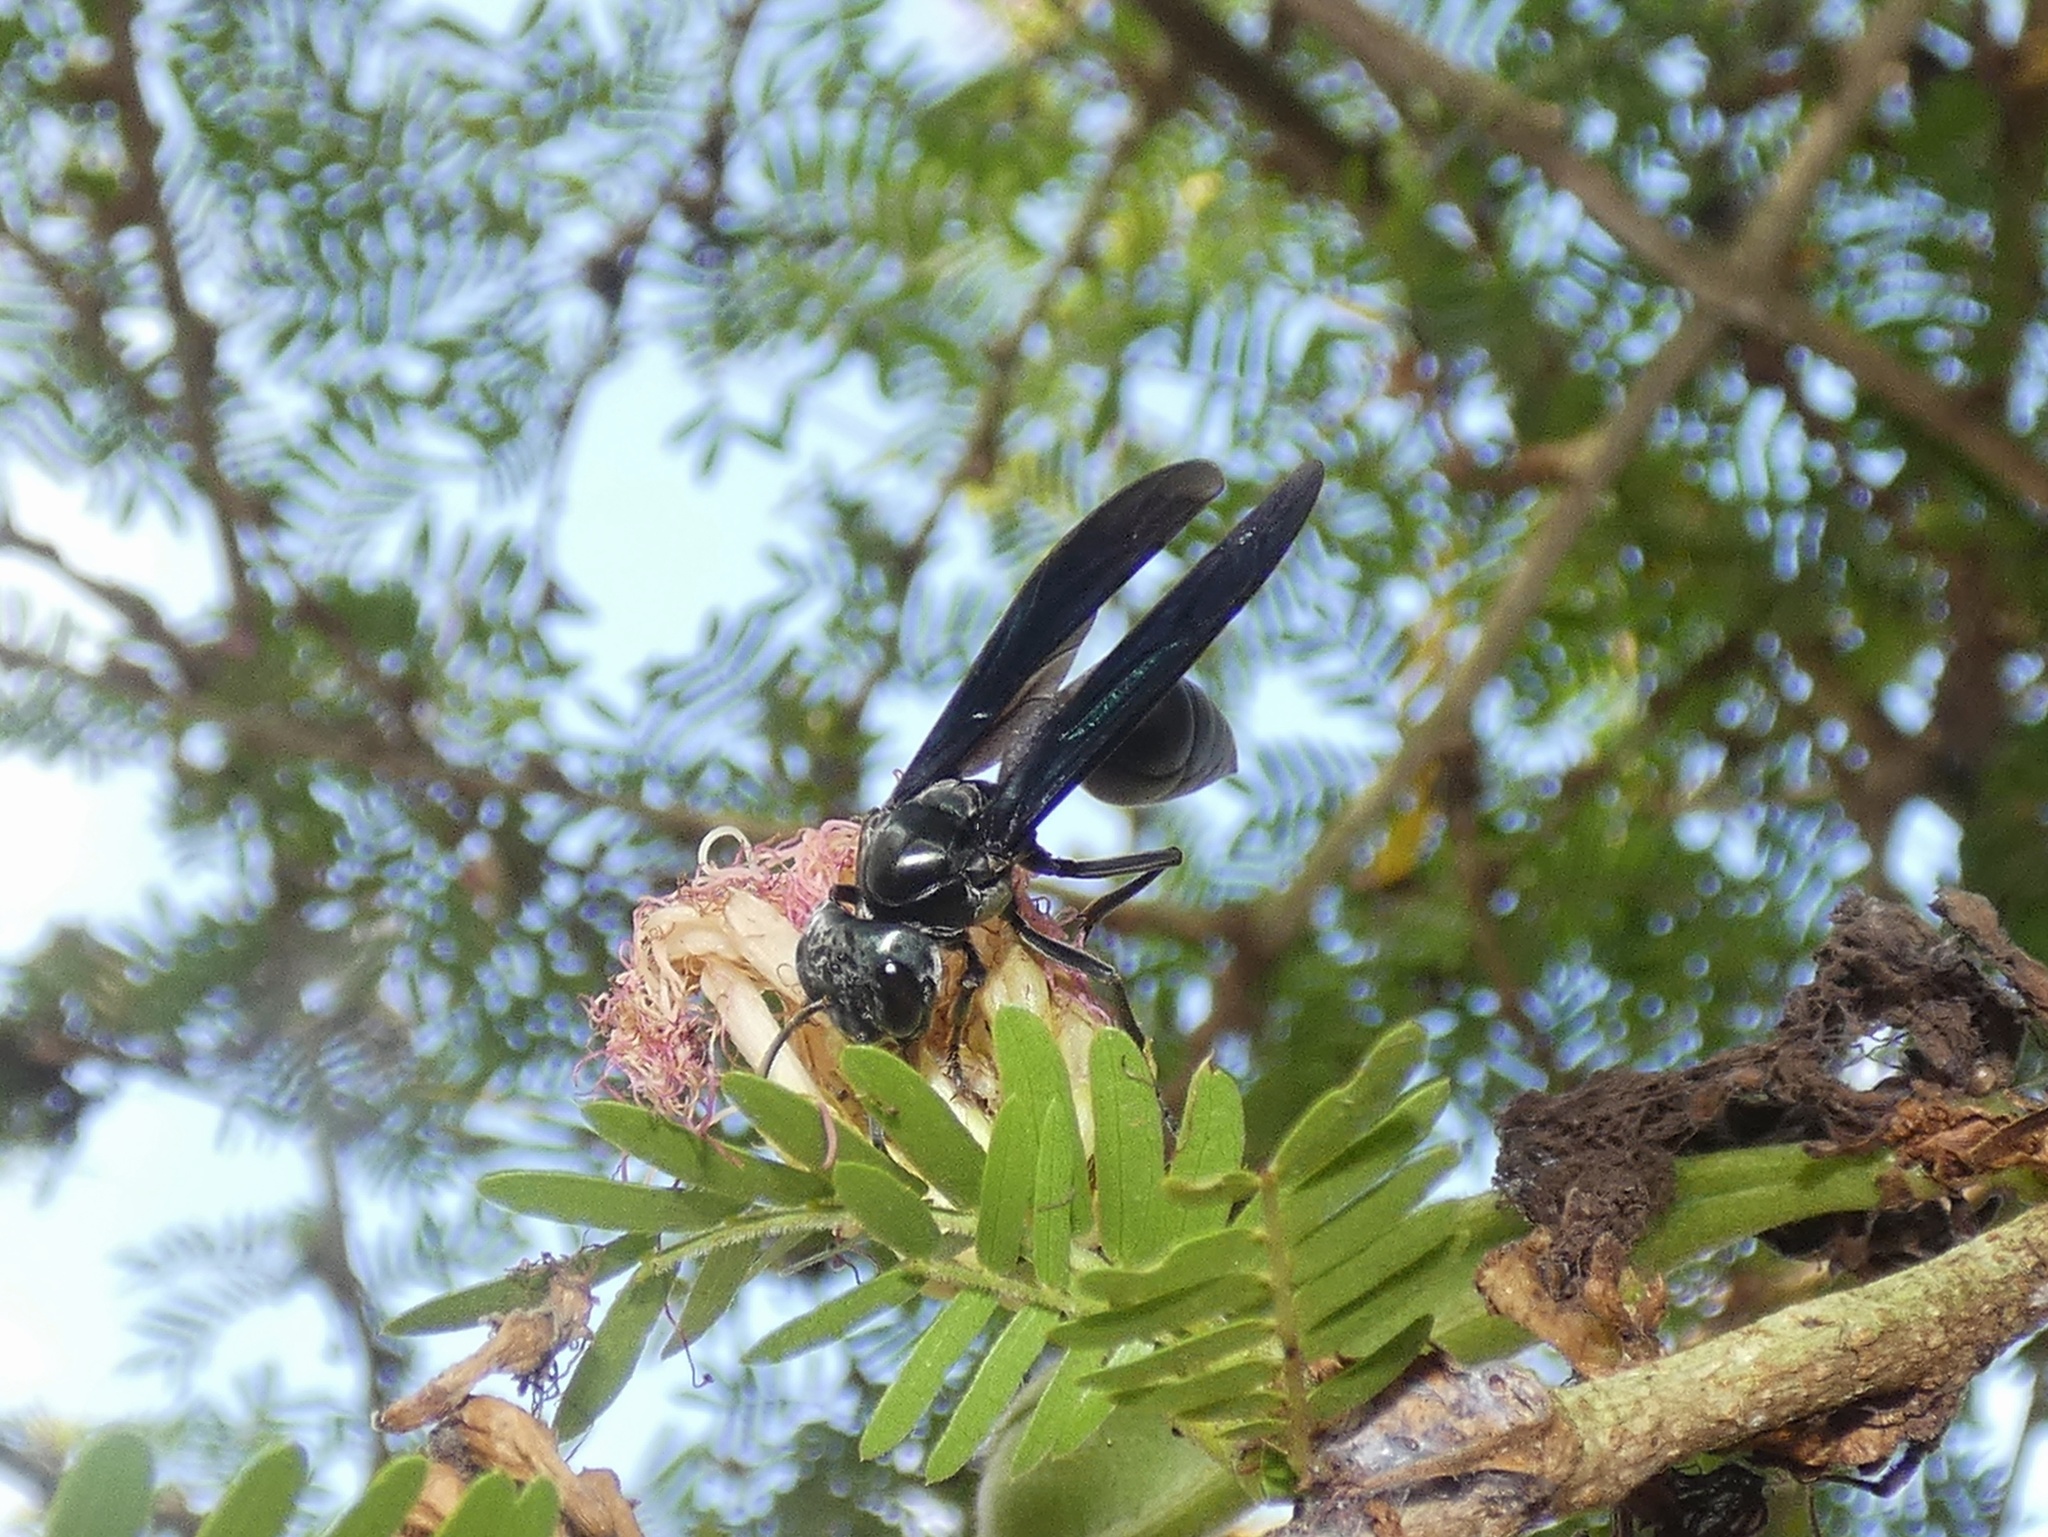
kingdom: Animalia
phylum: Arthropoda
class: Insecta
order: Hymenoptera
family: Vespidae
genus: Synoeca
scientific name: Synoeca septentrionalis
